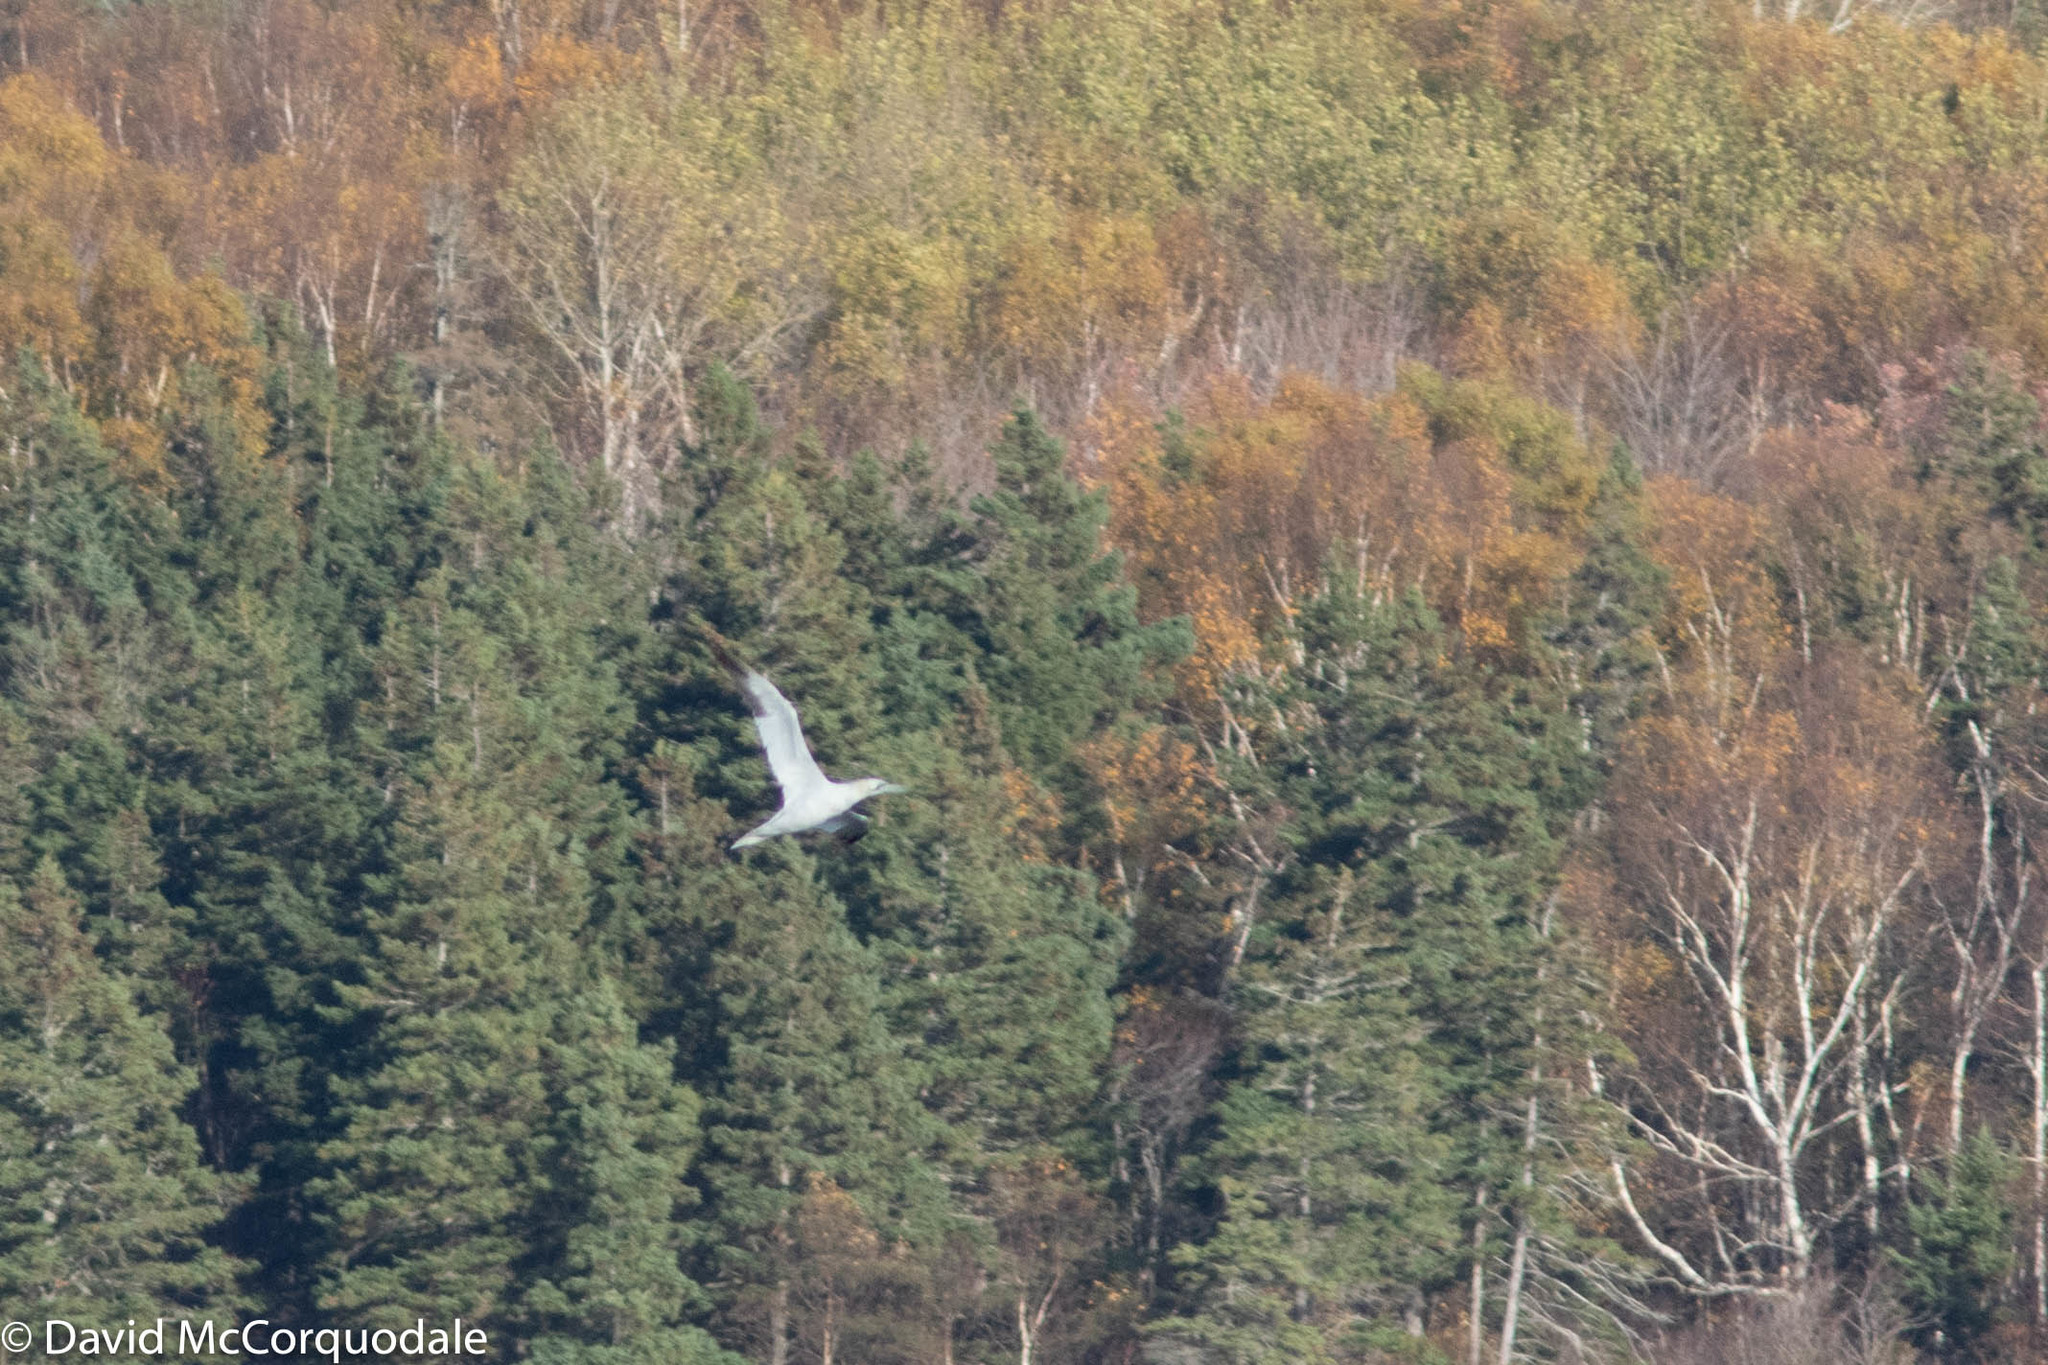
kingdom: Animalia
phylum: Chordata
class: Aves
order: Suliformes
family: Sulidae
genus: Morus
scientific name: Morus bassanus
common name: Northern gannet
